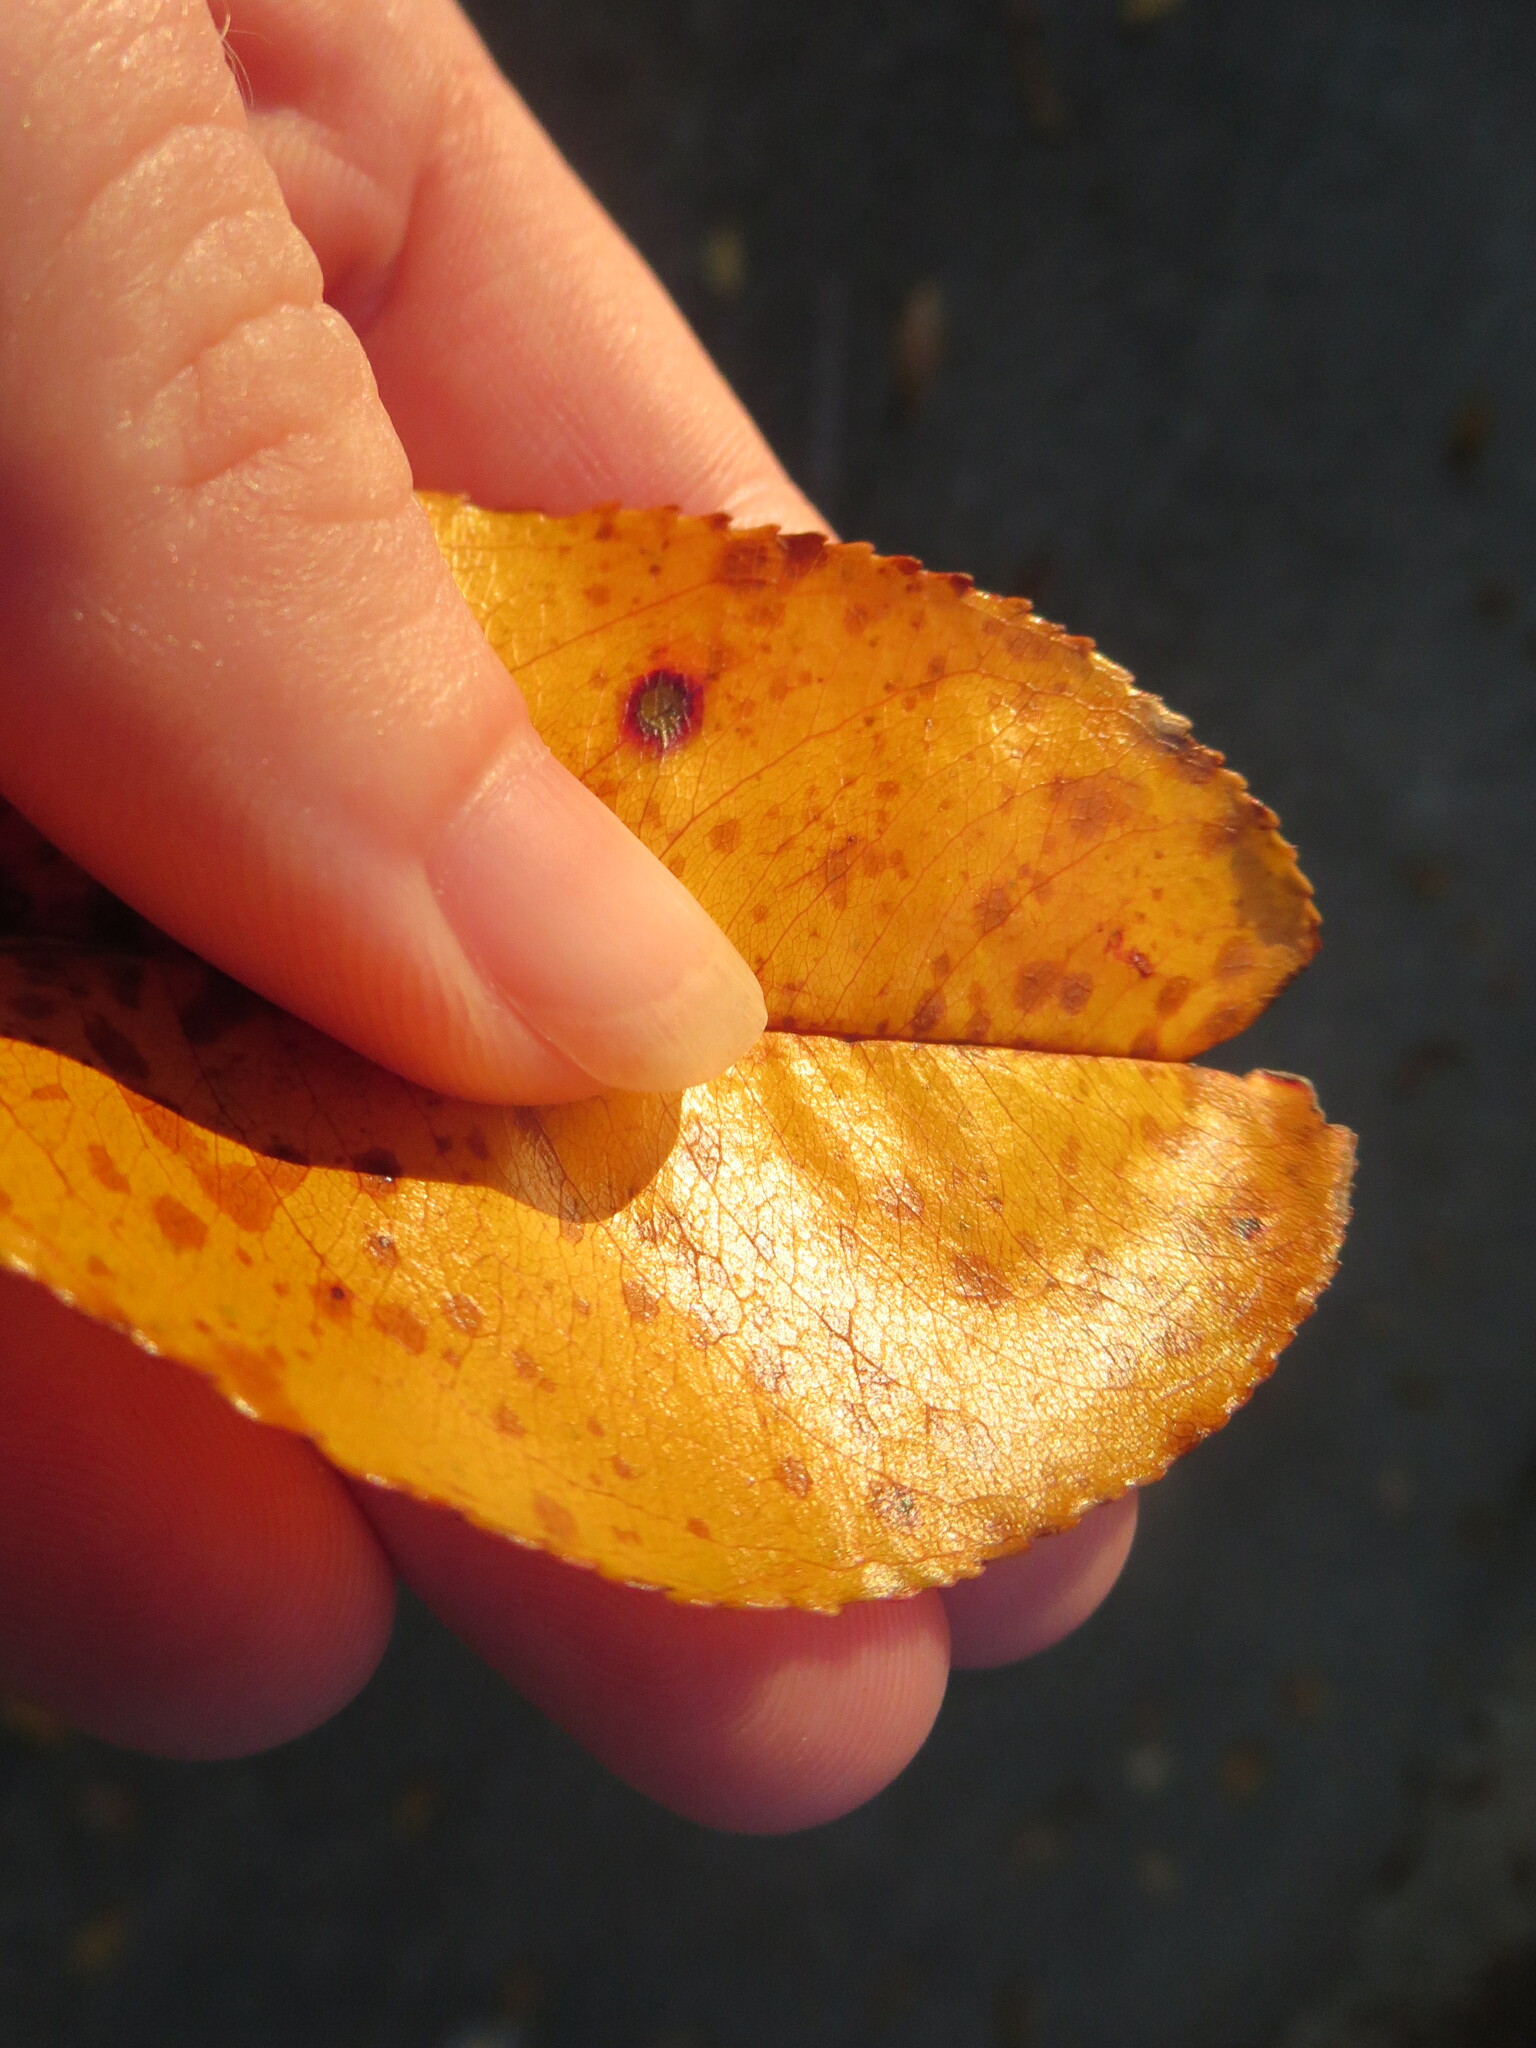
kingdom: Plantae
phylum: Tracheophyta
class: Magnoliopsida
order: Rosales
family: Rosaceae
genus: Prunus
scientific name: Prunus serotina
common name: Black cherry
